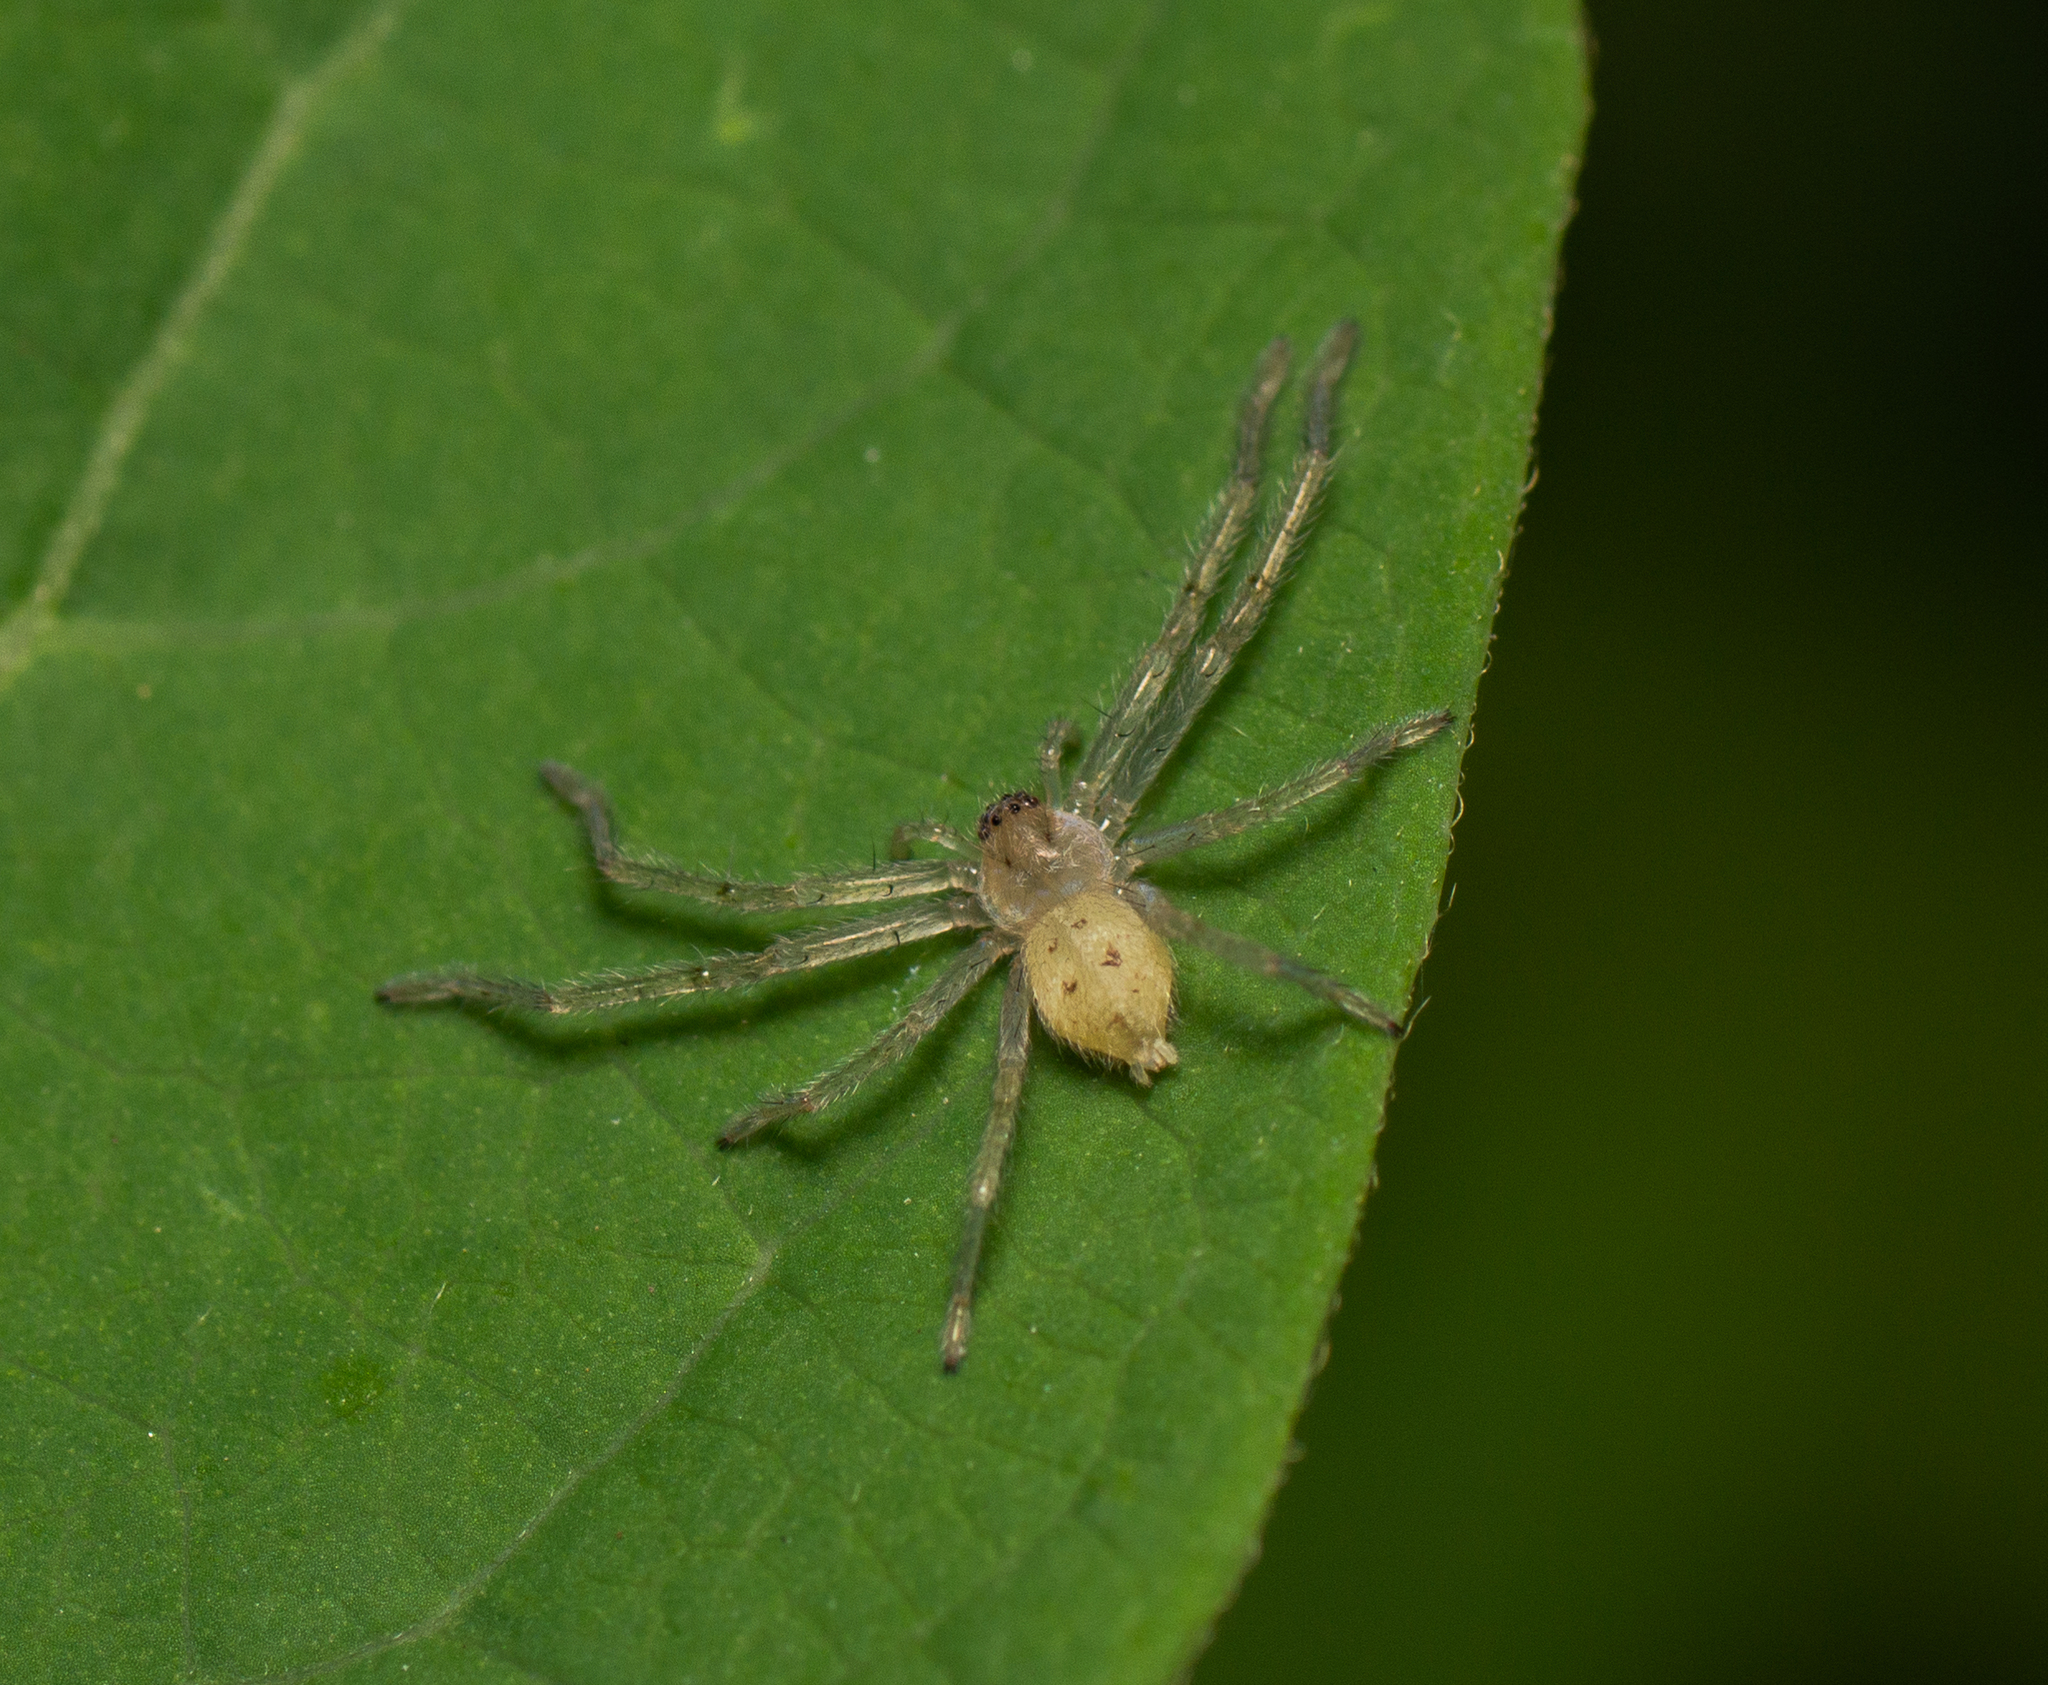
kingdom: Animalia
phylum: Arthropoda
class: Arachnida
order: Araneae
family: Sparassidae
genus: Olios
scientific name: Olios argelasius
